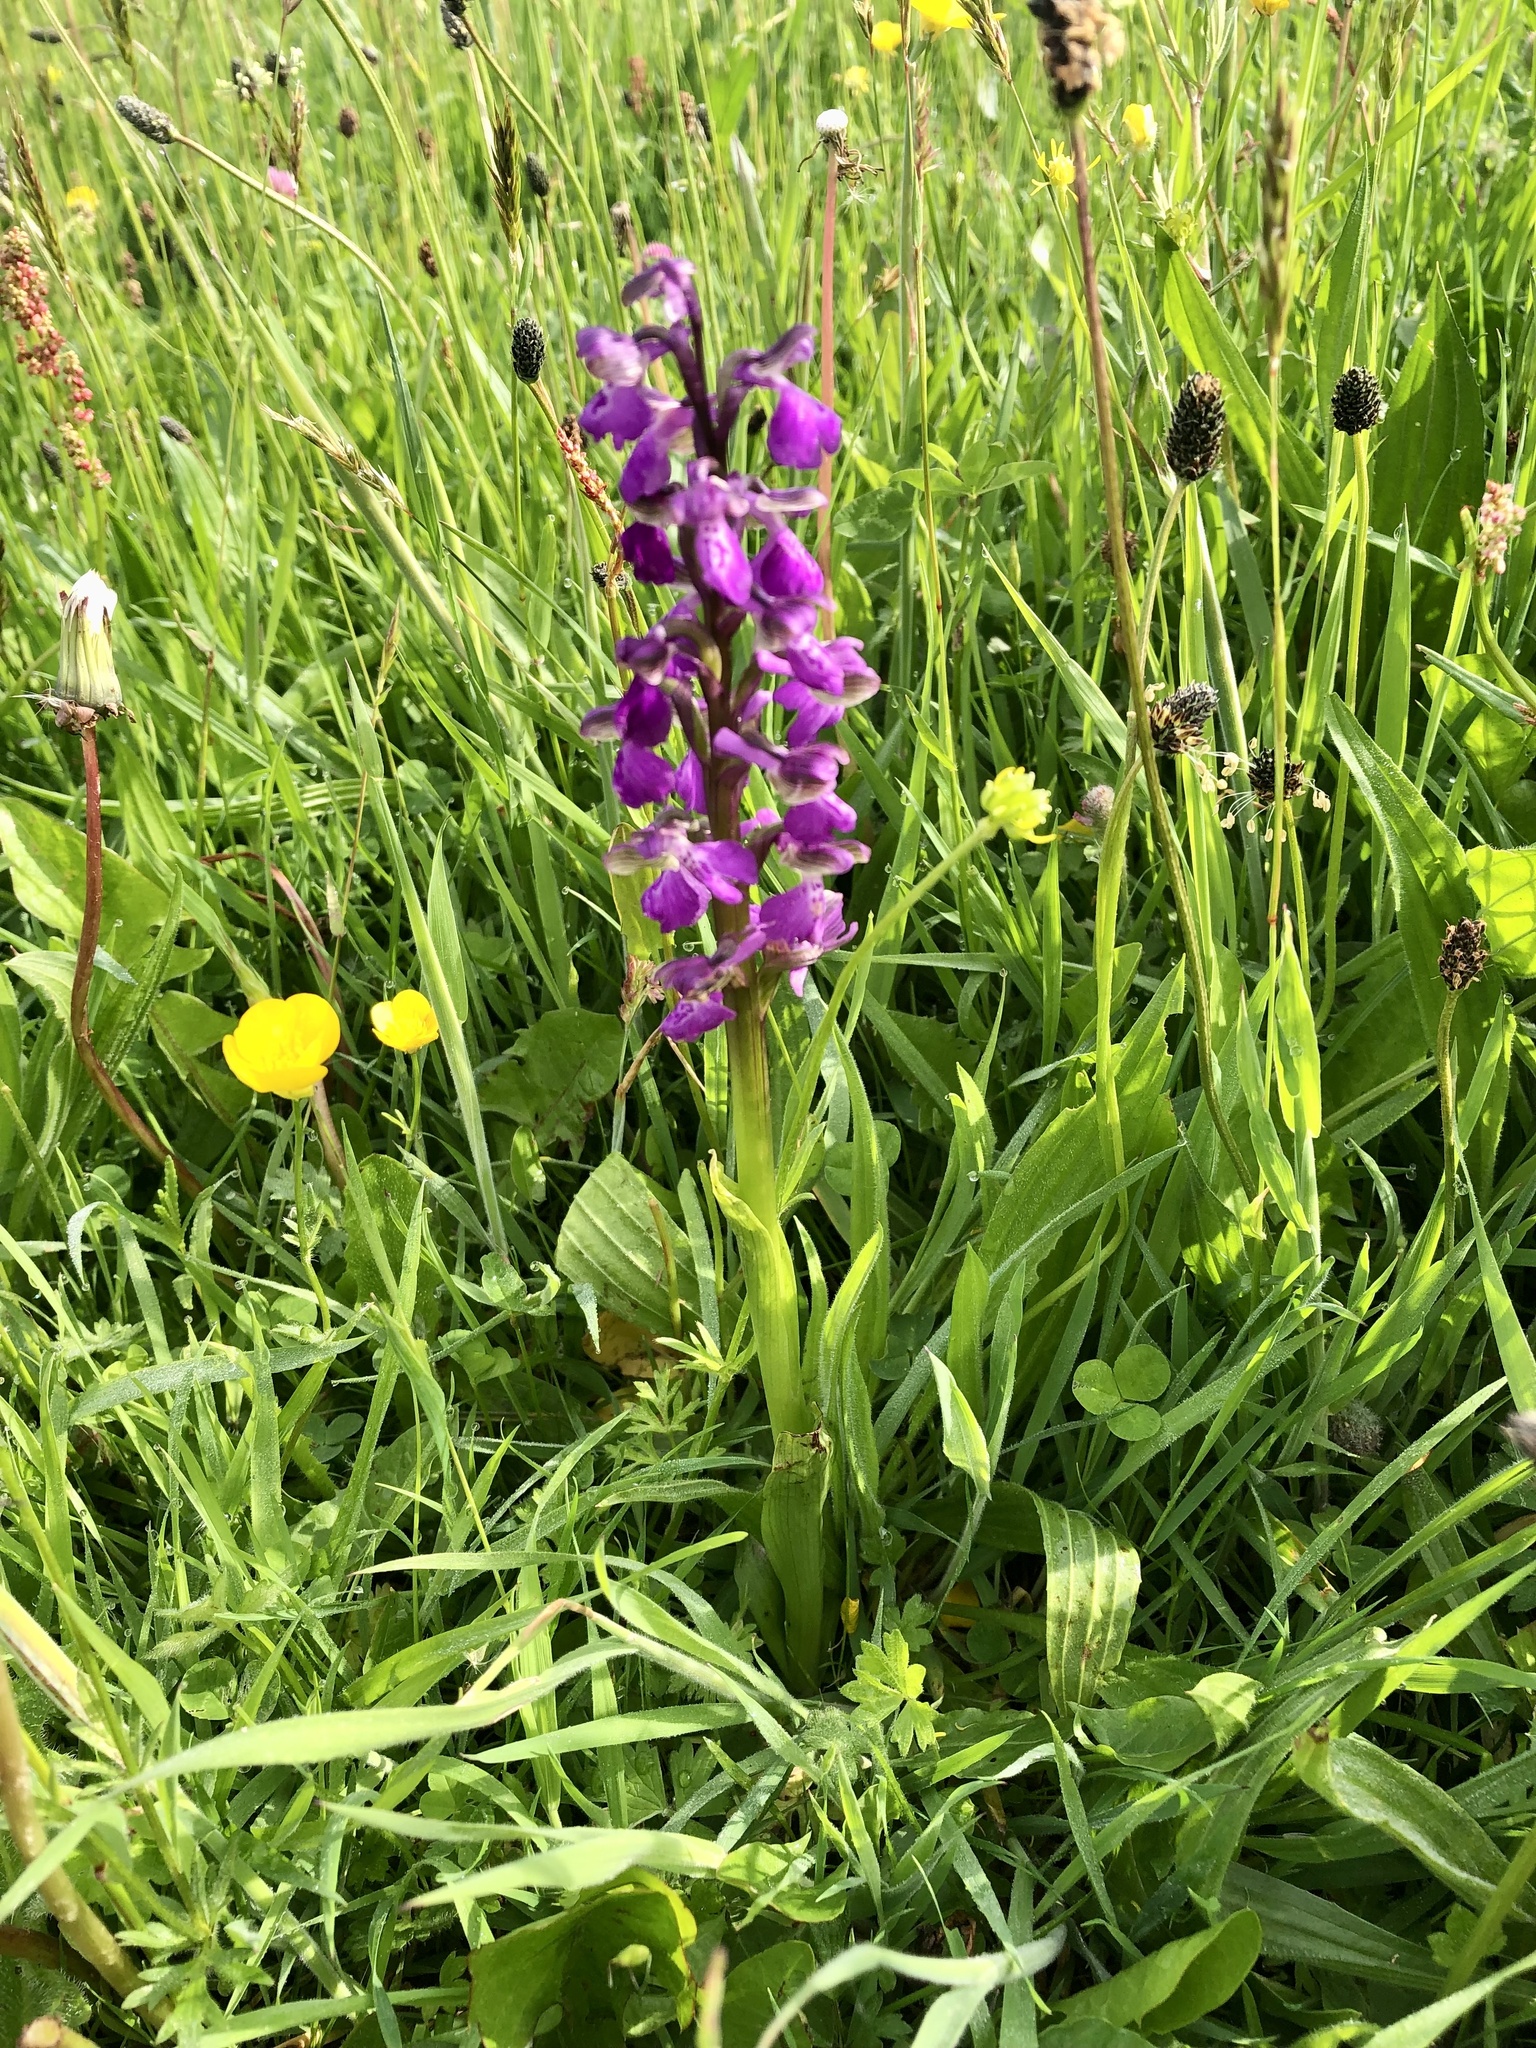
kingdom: Plantae
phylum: Tracheophyta
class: Liliopsida
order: Asparagales
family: Orchidaceae
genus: Anacamptis
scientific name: Anacamptis morio
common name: Green-winged orchid
